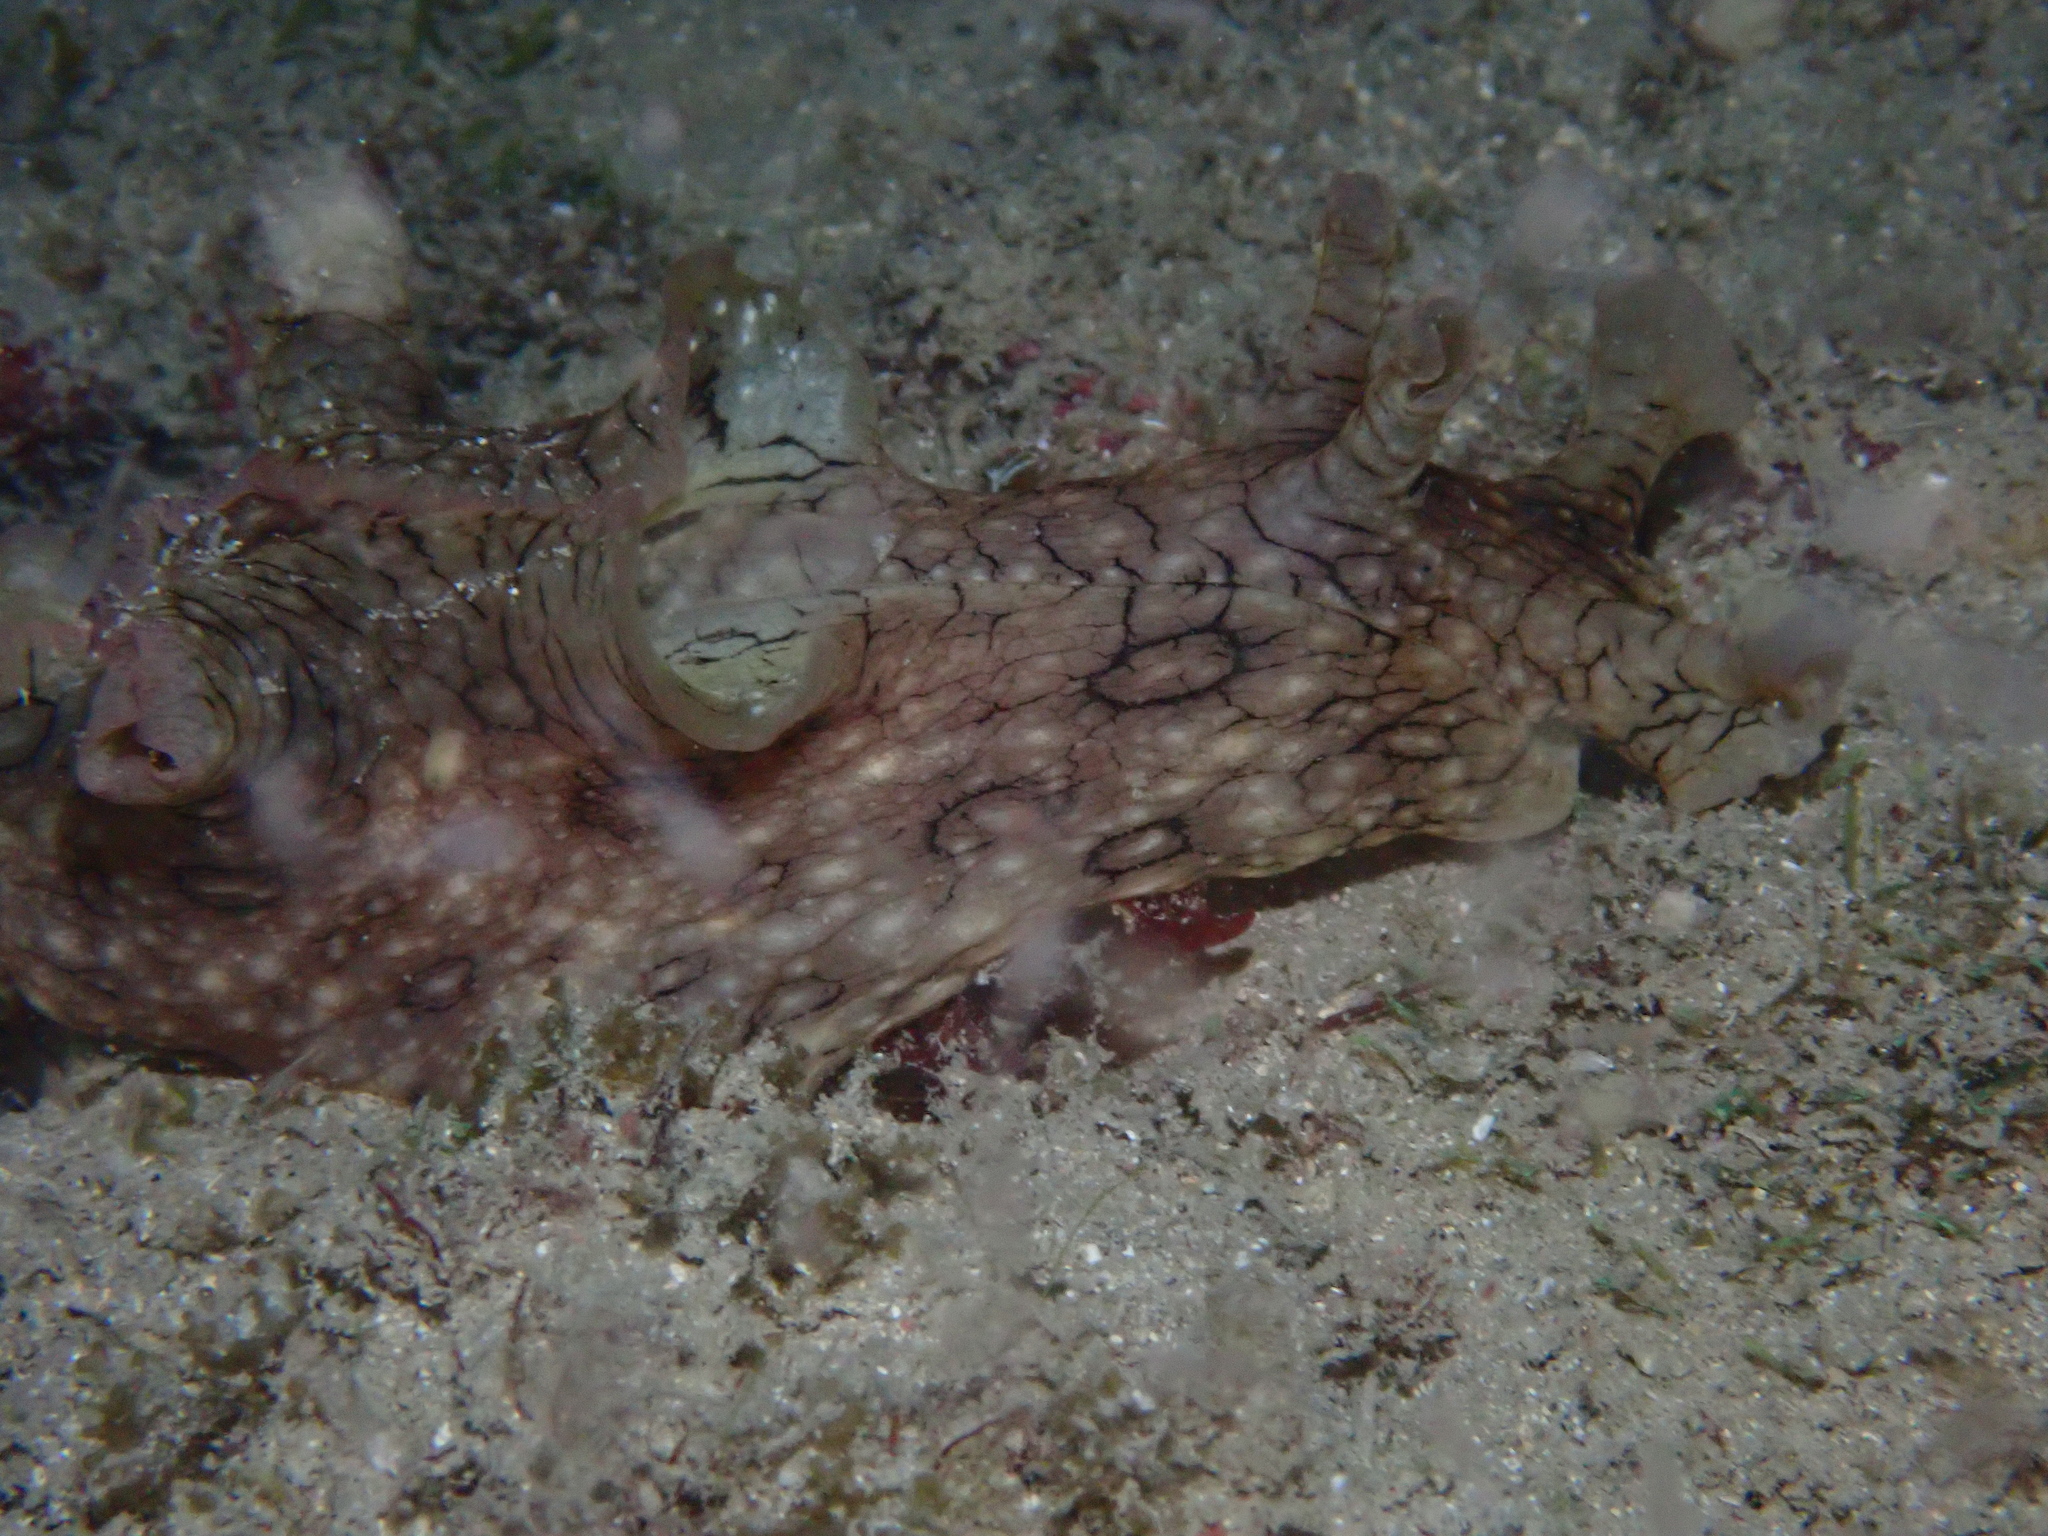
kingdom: Animalia
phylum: Mollusca
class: Gastropoda
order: Aplysiida
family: Aplysiidae
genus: Aplysia
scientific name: Aplysia argus
